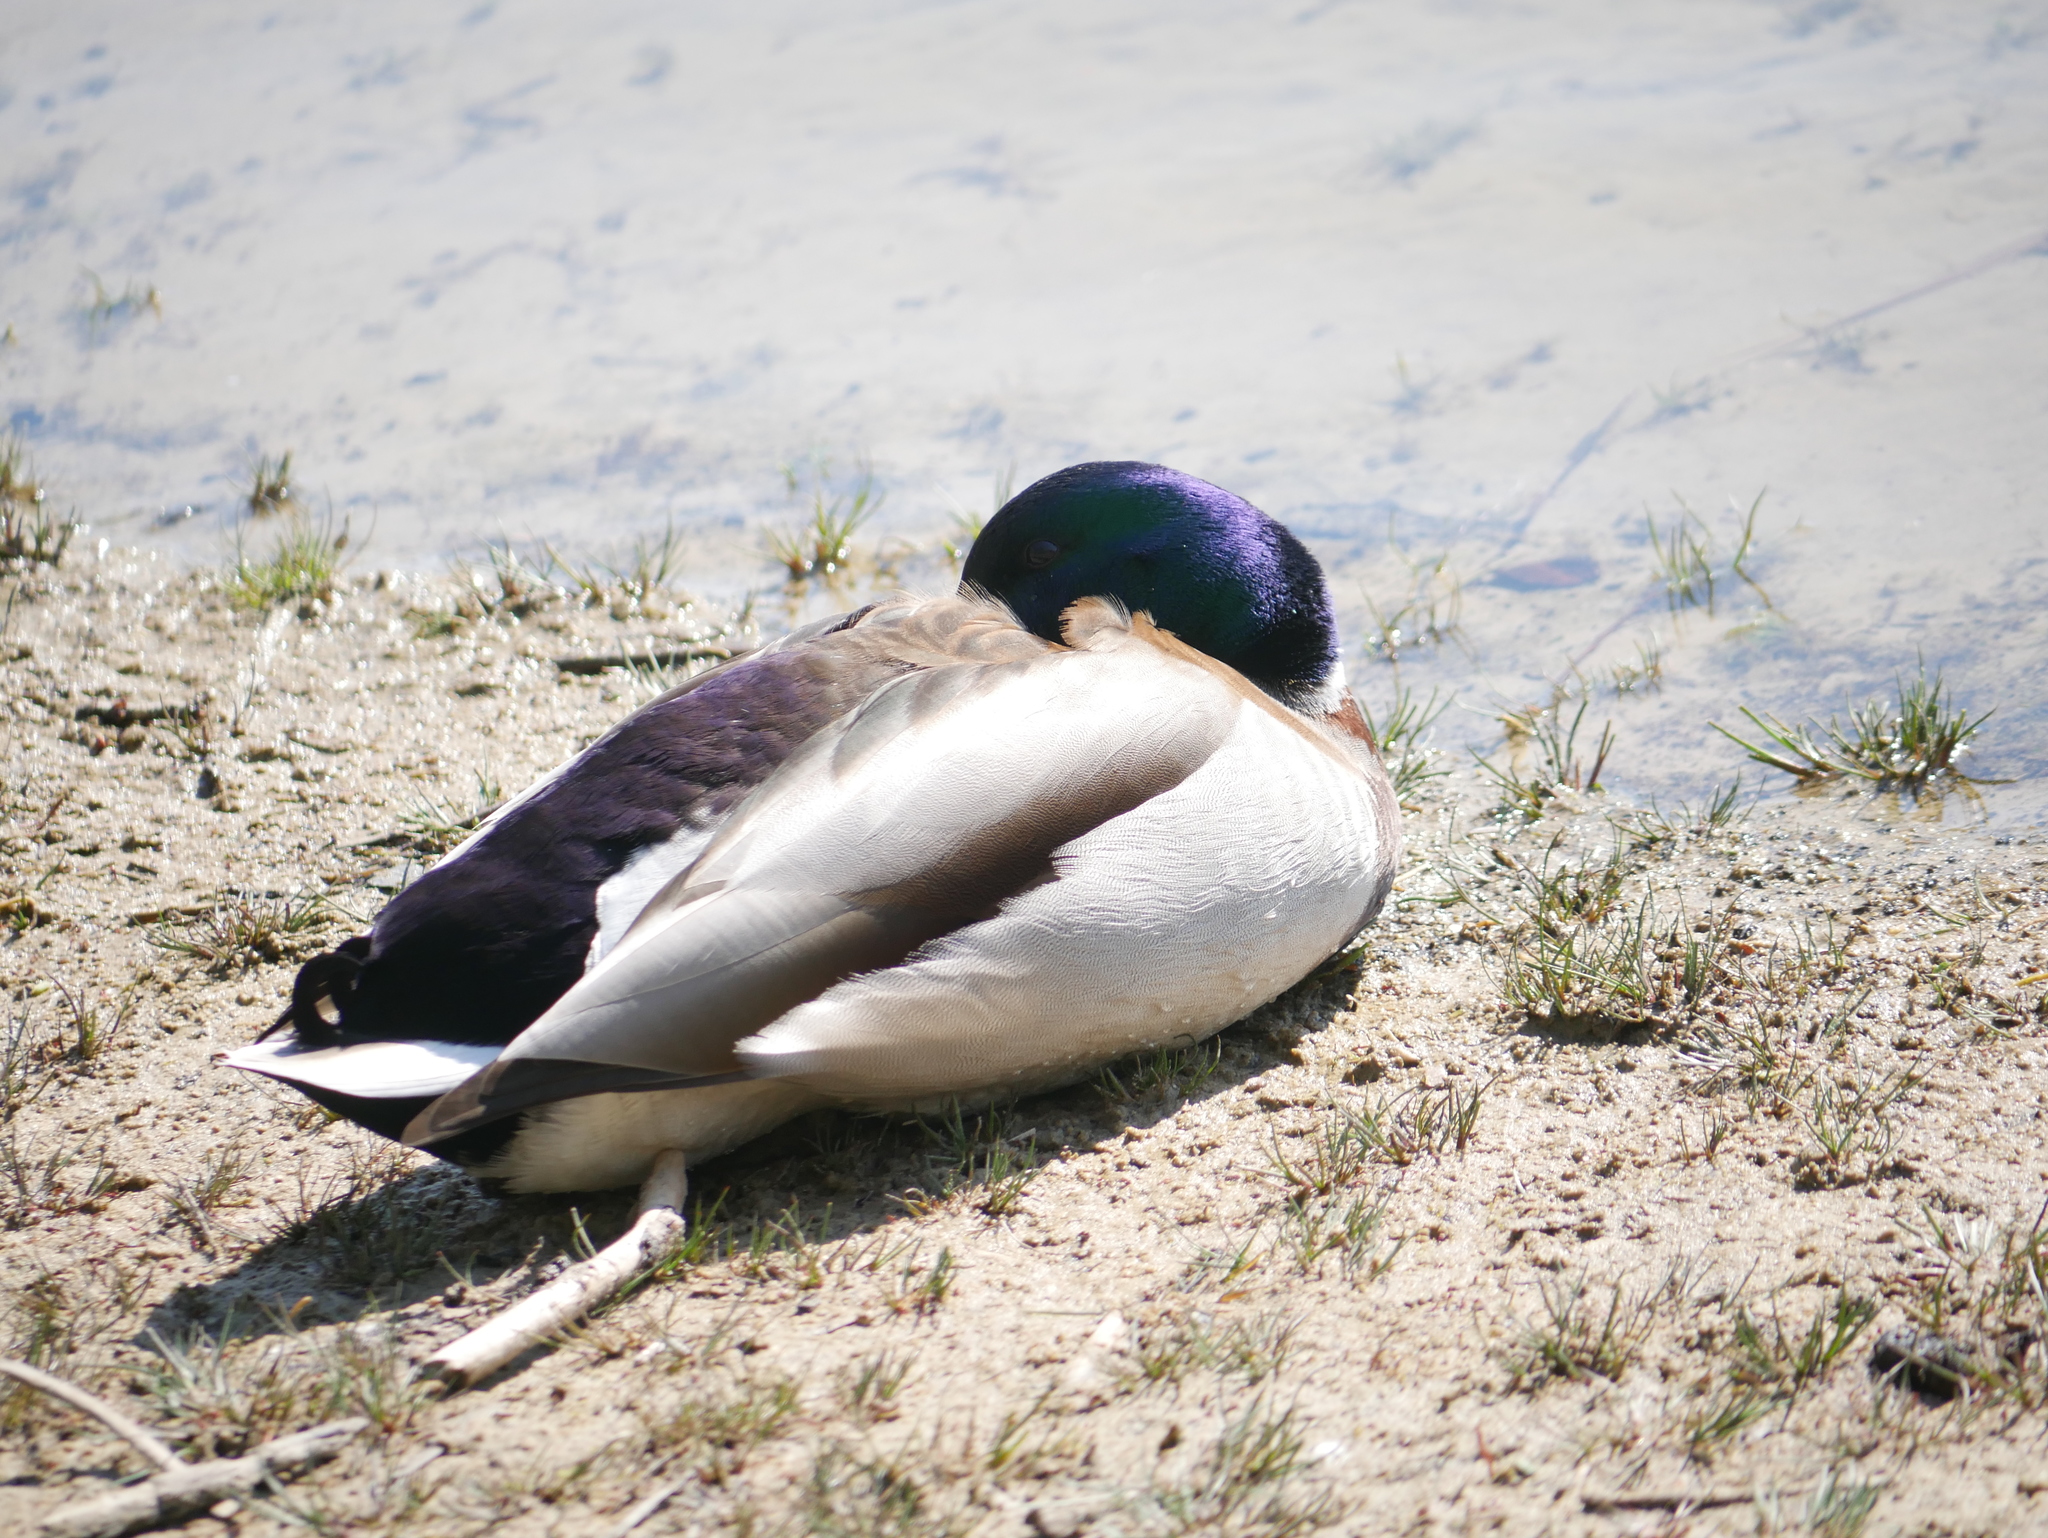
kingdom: Animalia
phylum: Chordata
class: Aves
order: Anseriformes
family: Anatidae
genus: Anas
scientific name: Anas platyrhynchos
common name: Mallard
